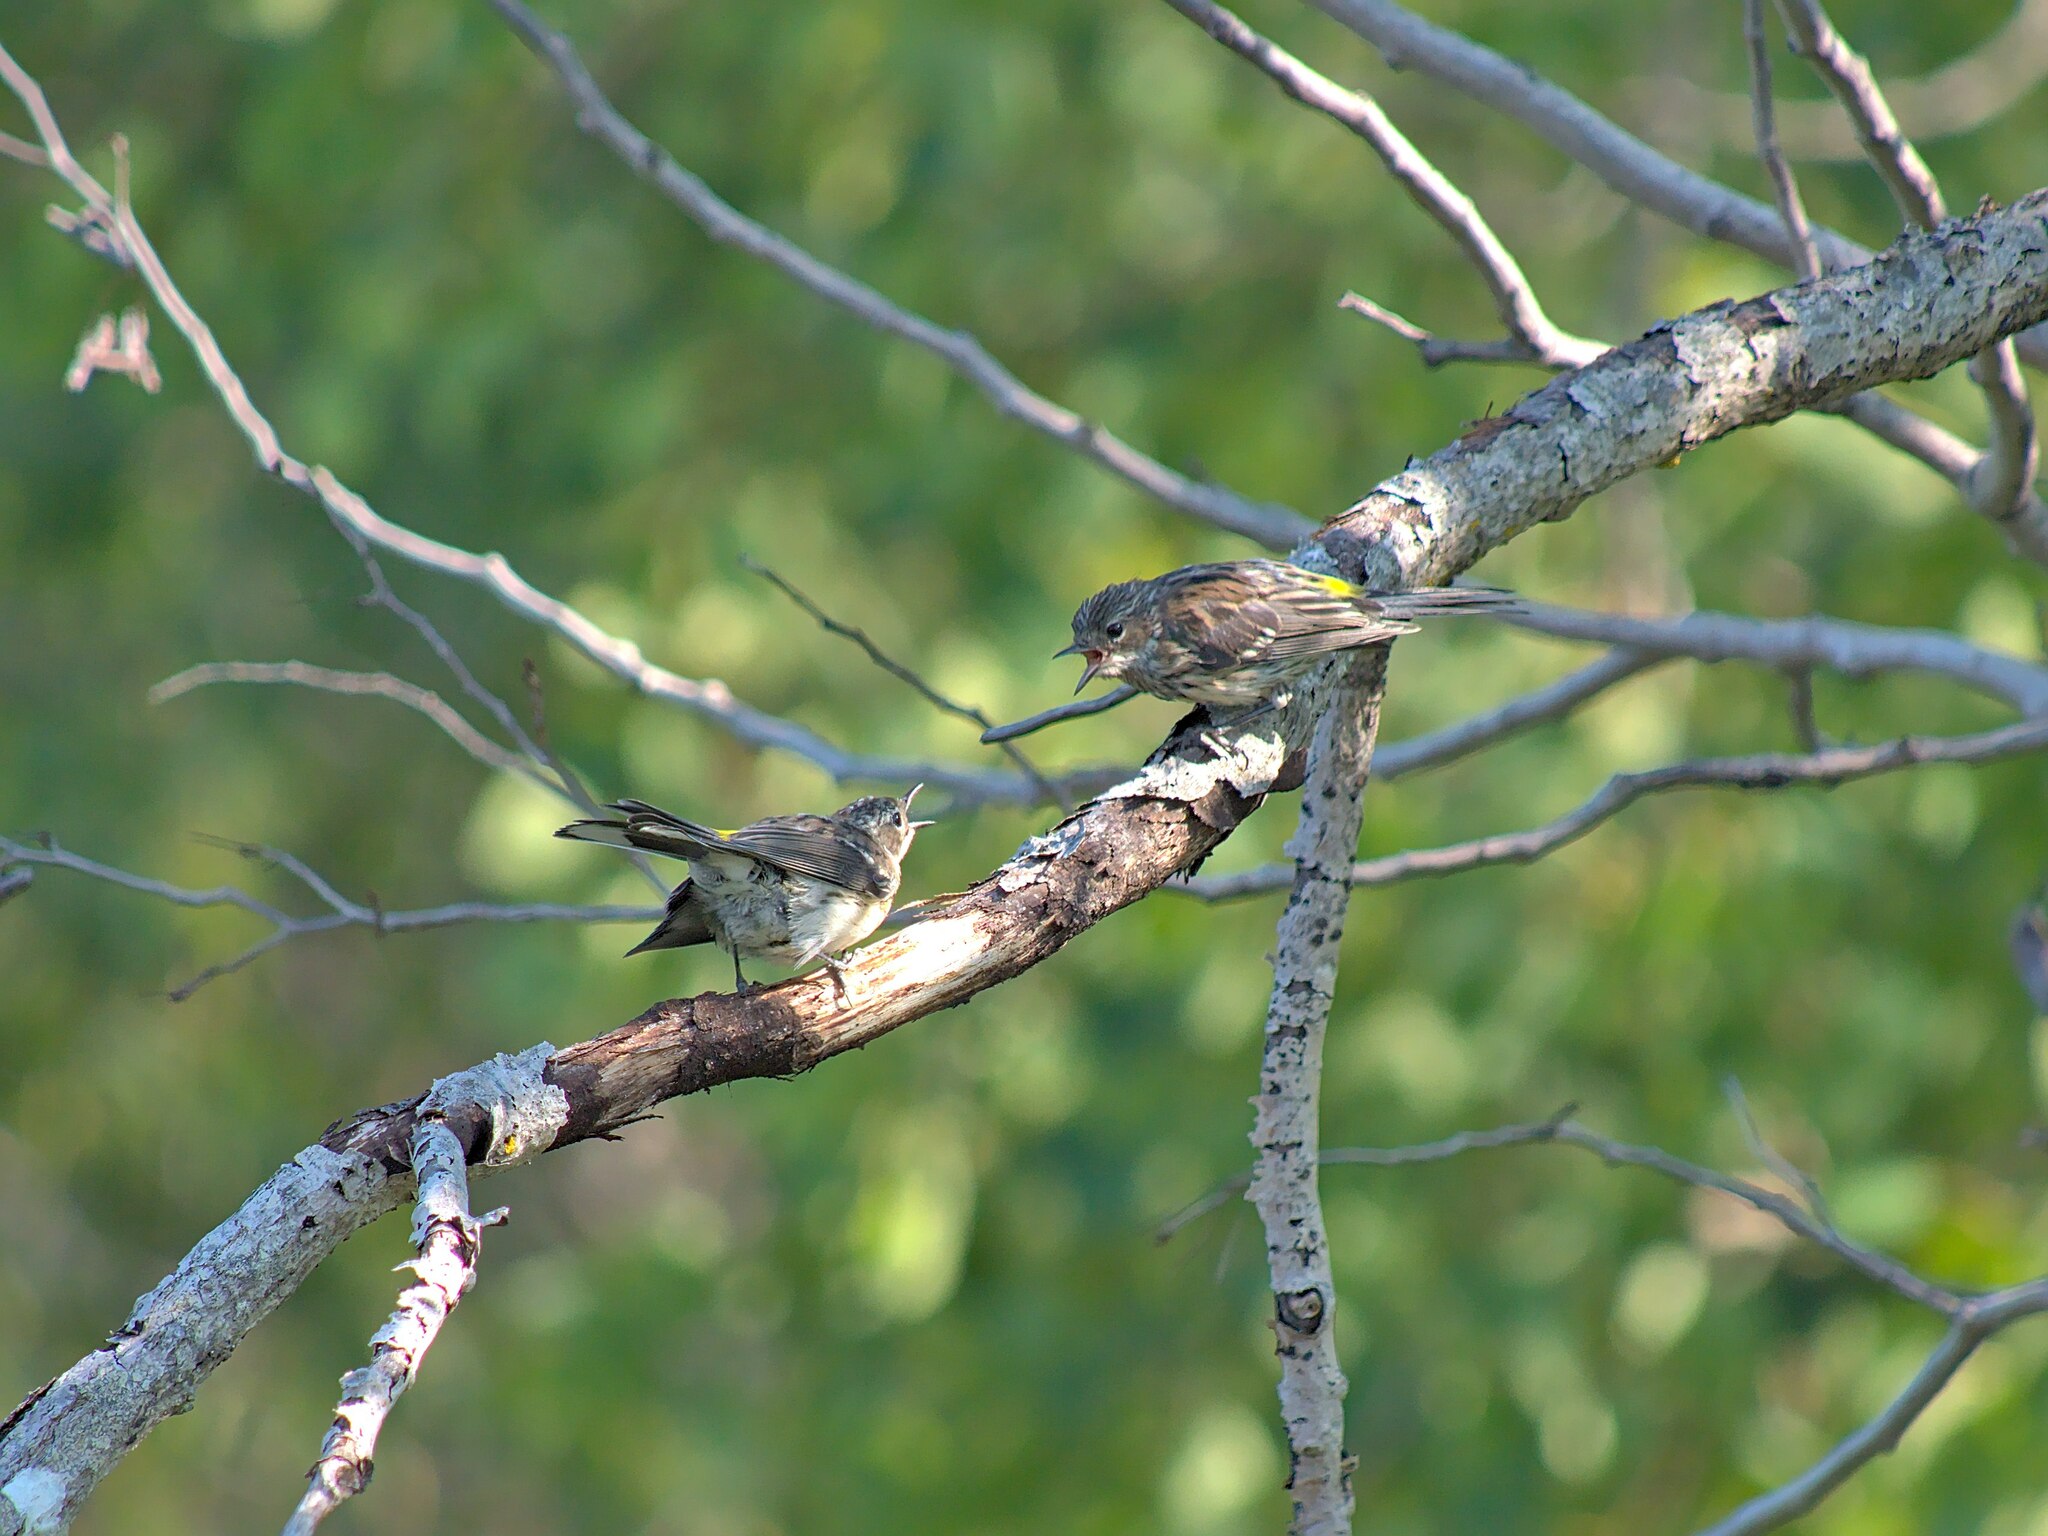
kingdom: Animalia
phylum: Chordata
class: Aves
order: Passeriformes
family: Parulidae
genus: Setophaga
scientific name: Setophaga coronata
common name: Myrtle warbler
